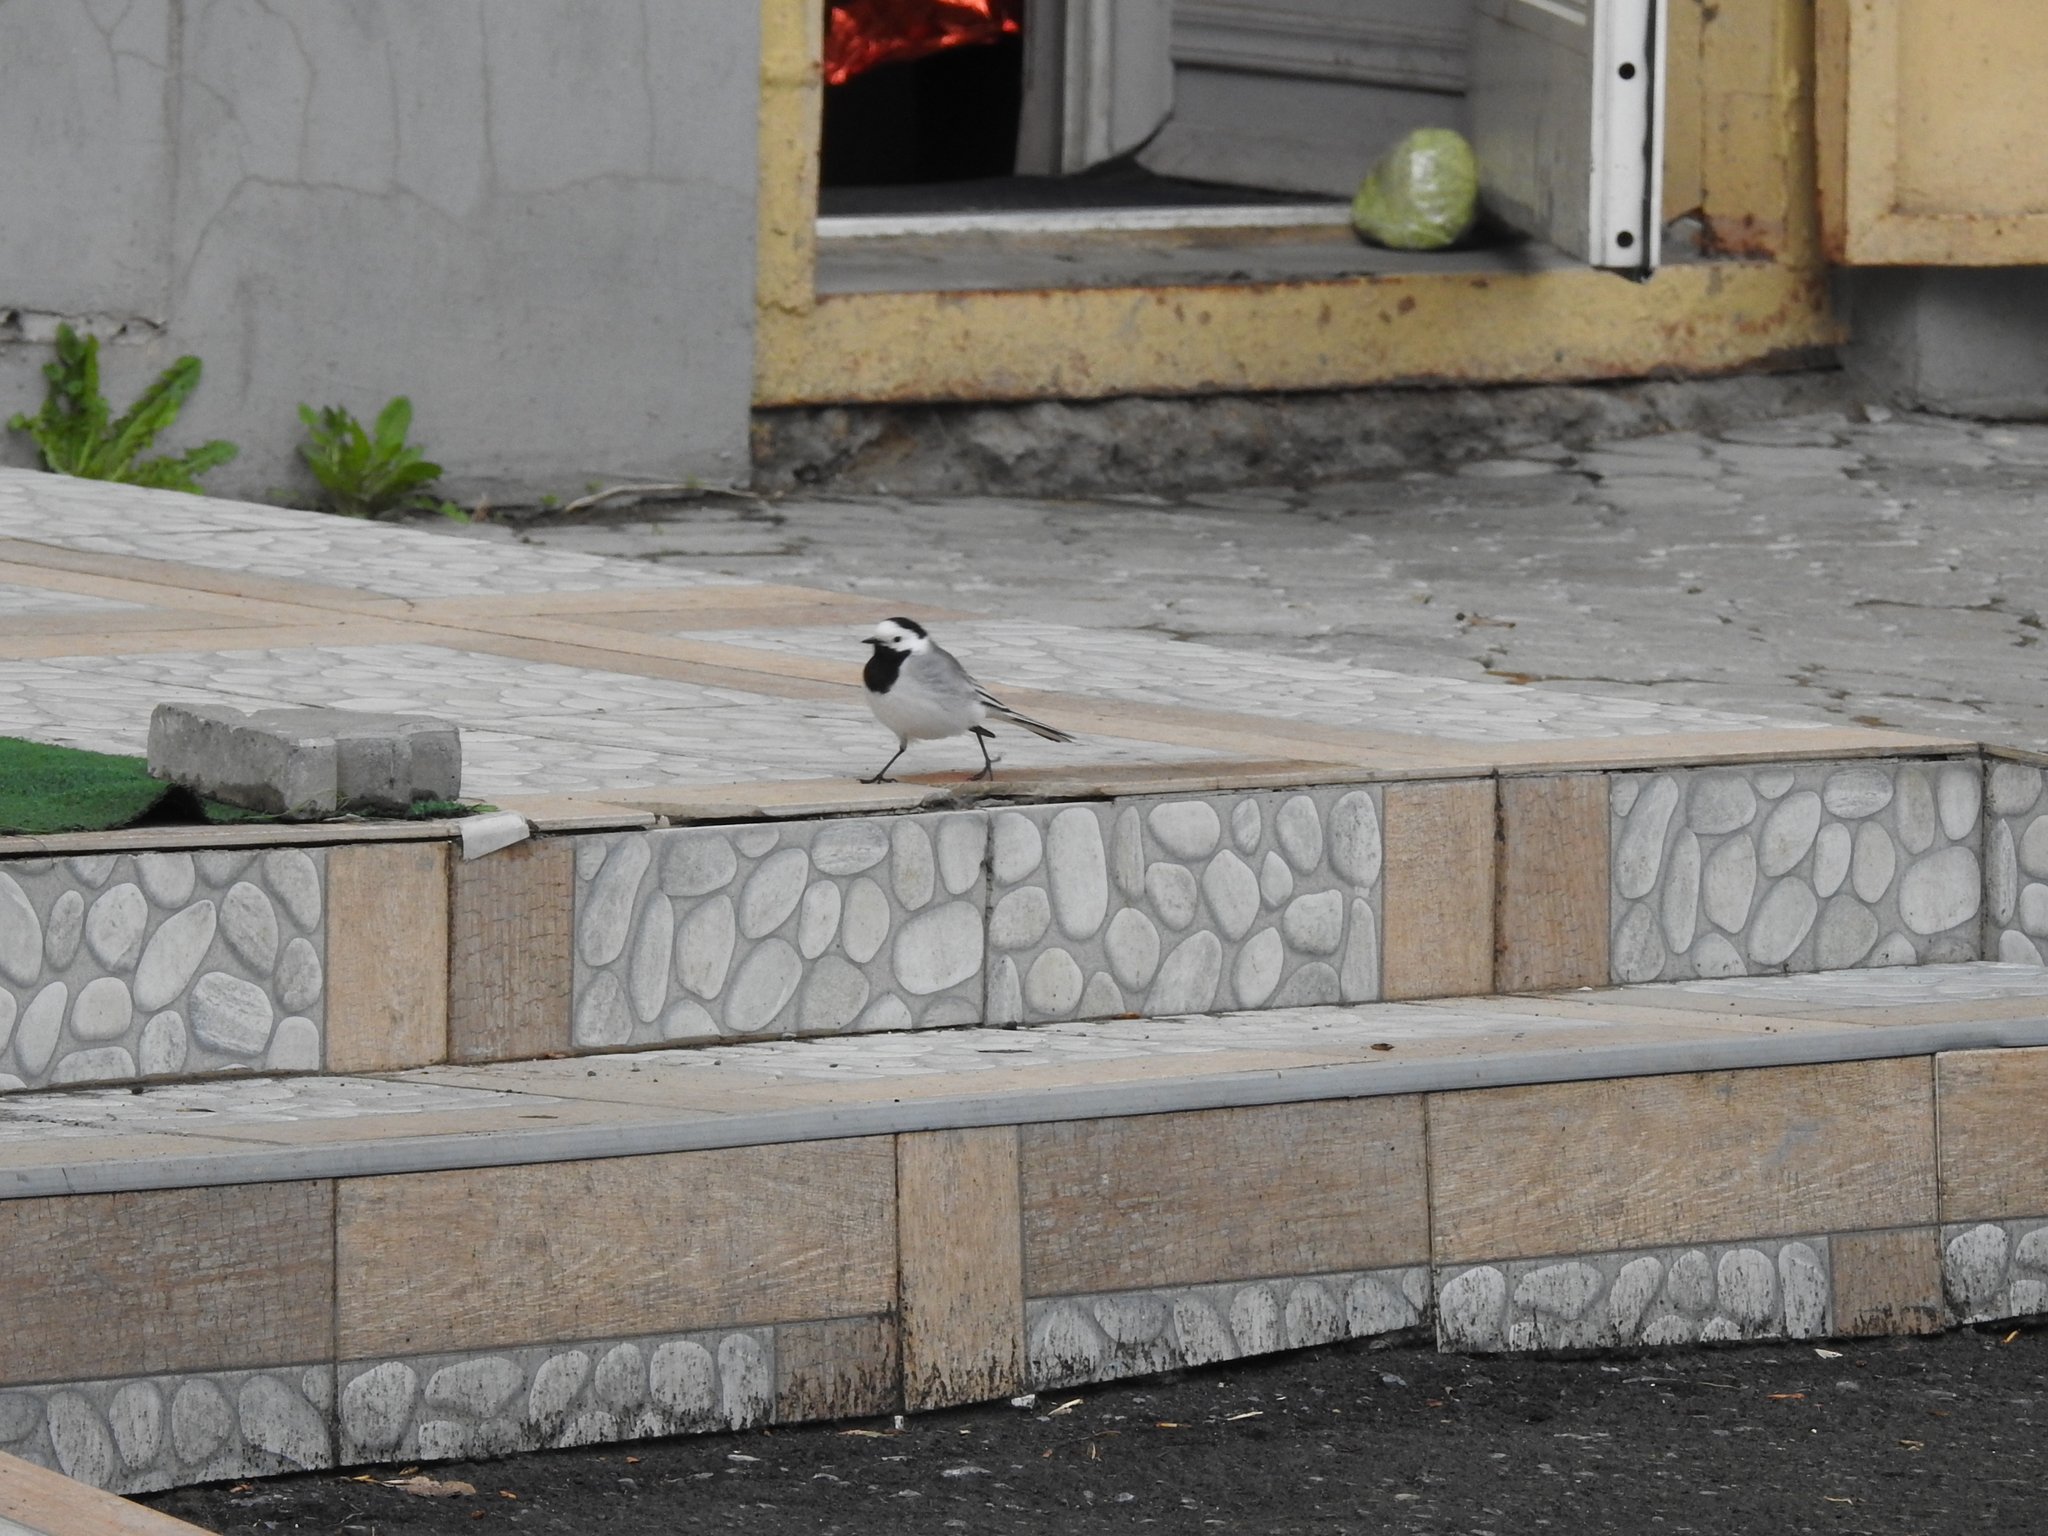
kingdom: Animalia
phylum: Chordata
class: Aves
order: Passeriformes
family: Motacillidae
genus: Motacilla
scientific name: Motacilla alba
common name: White wagtail
